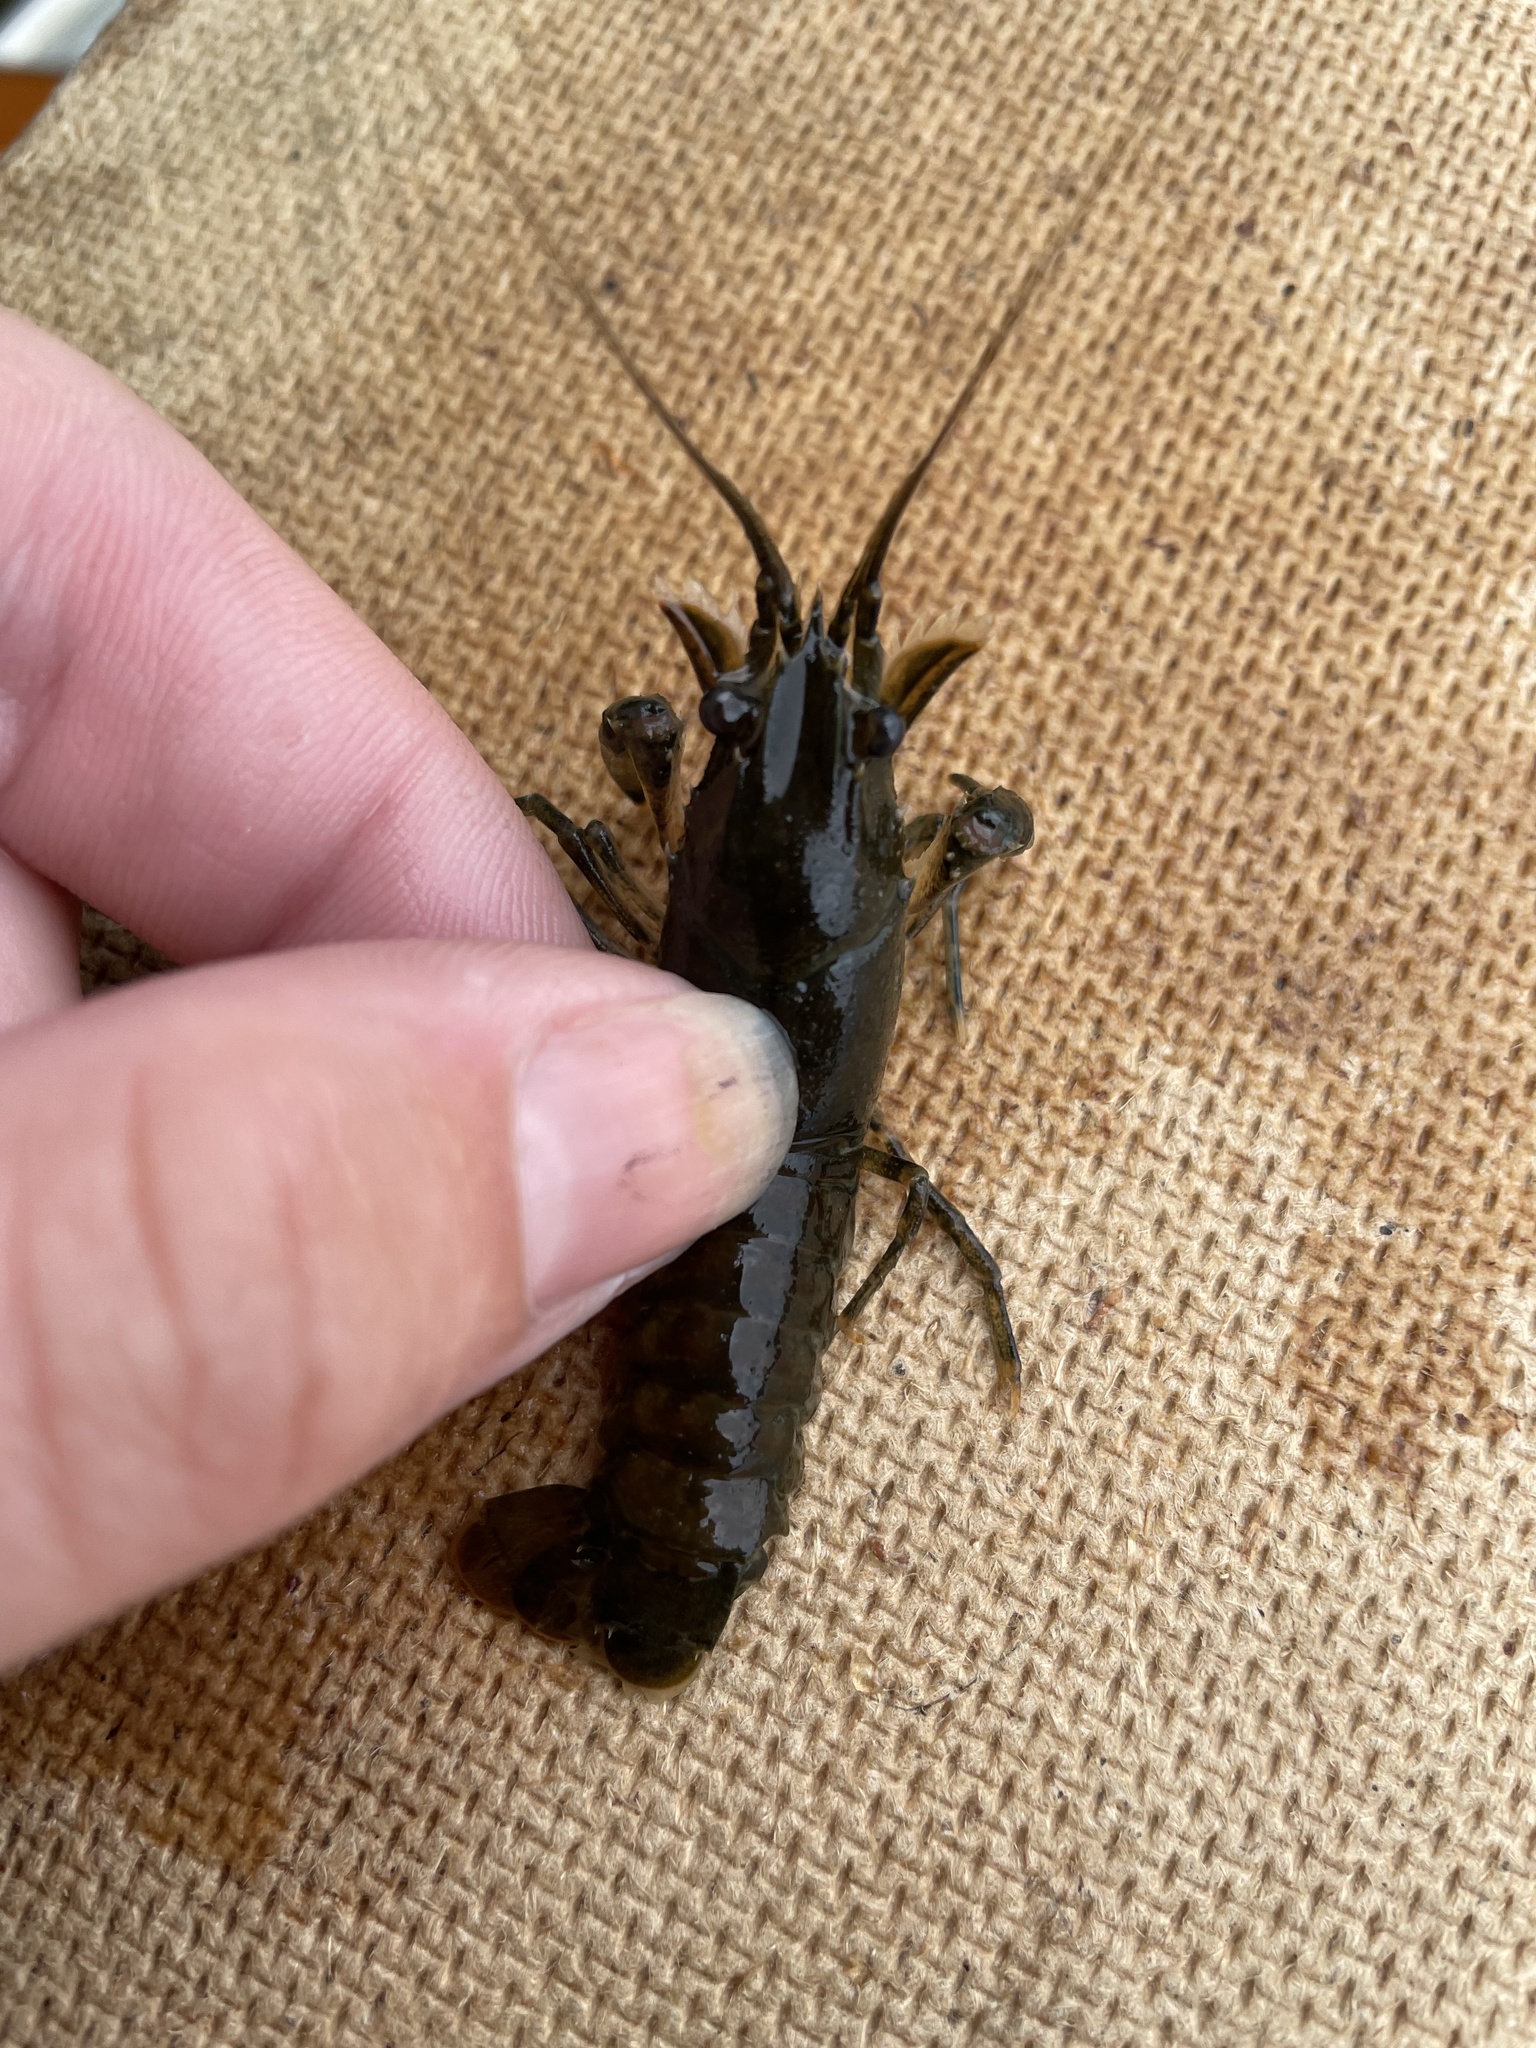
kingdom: Animalia
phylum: Arthropoda
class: Malacostraca
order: Decapoda
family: Cambaridae
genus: Faxonius
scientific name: Faxonius limosus
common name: American crayfish
